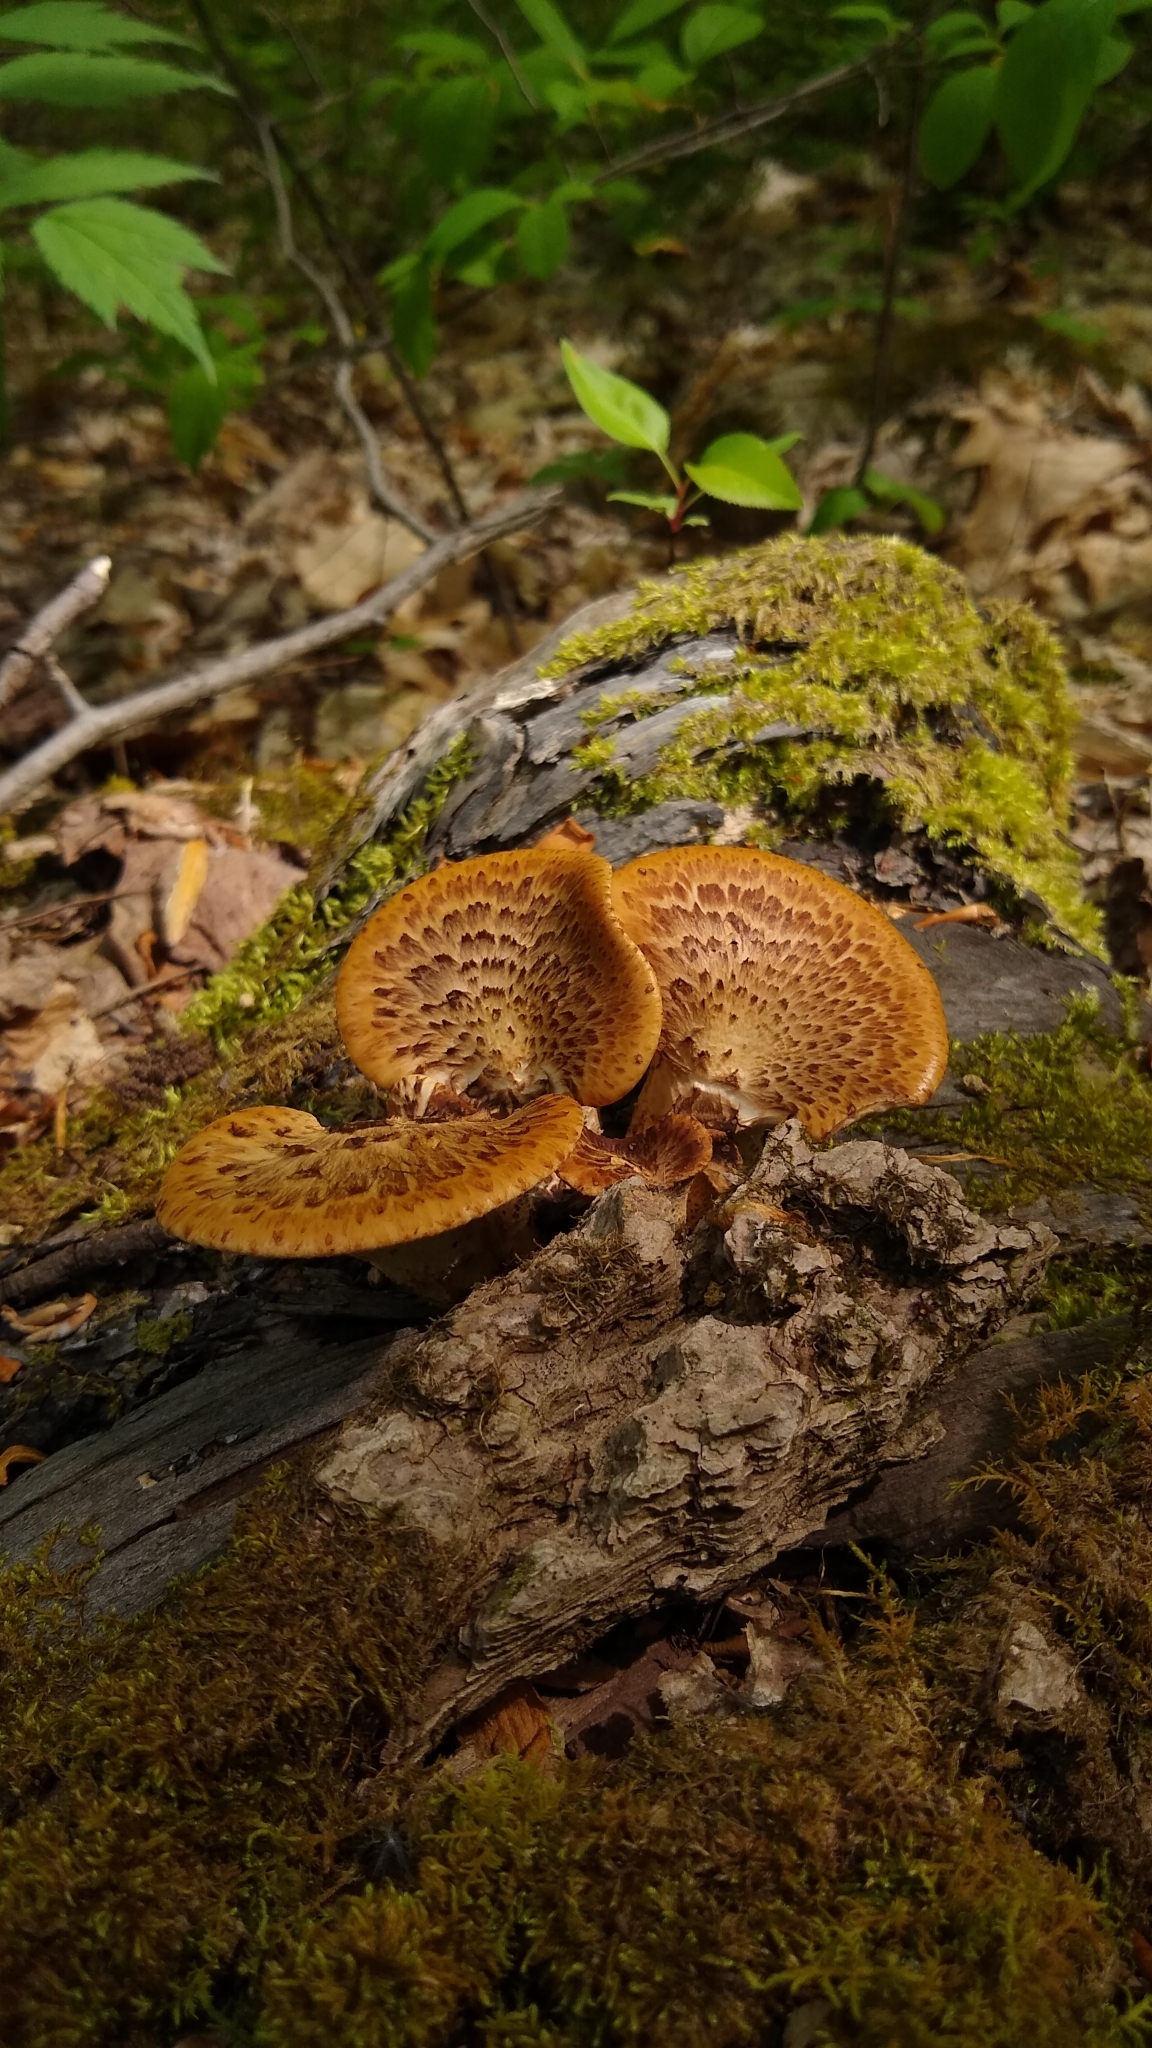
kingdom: Fungi
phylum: Basidiomycota
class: Agaricomycetes
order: Polyporales
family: Polyporaceae
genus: Cerioporus
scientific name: Cerioporus squamosus
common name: Dryad's saddle
